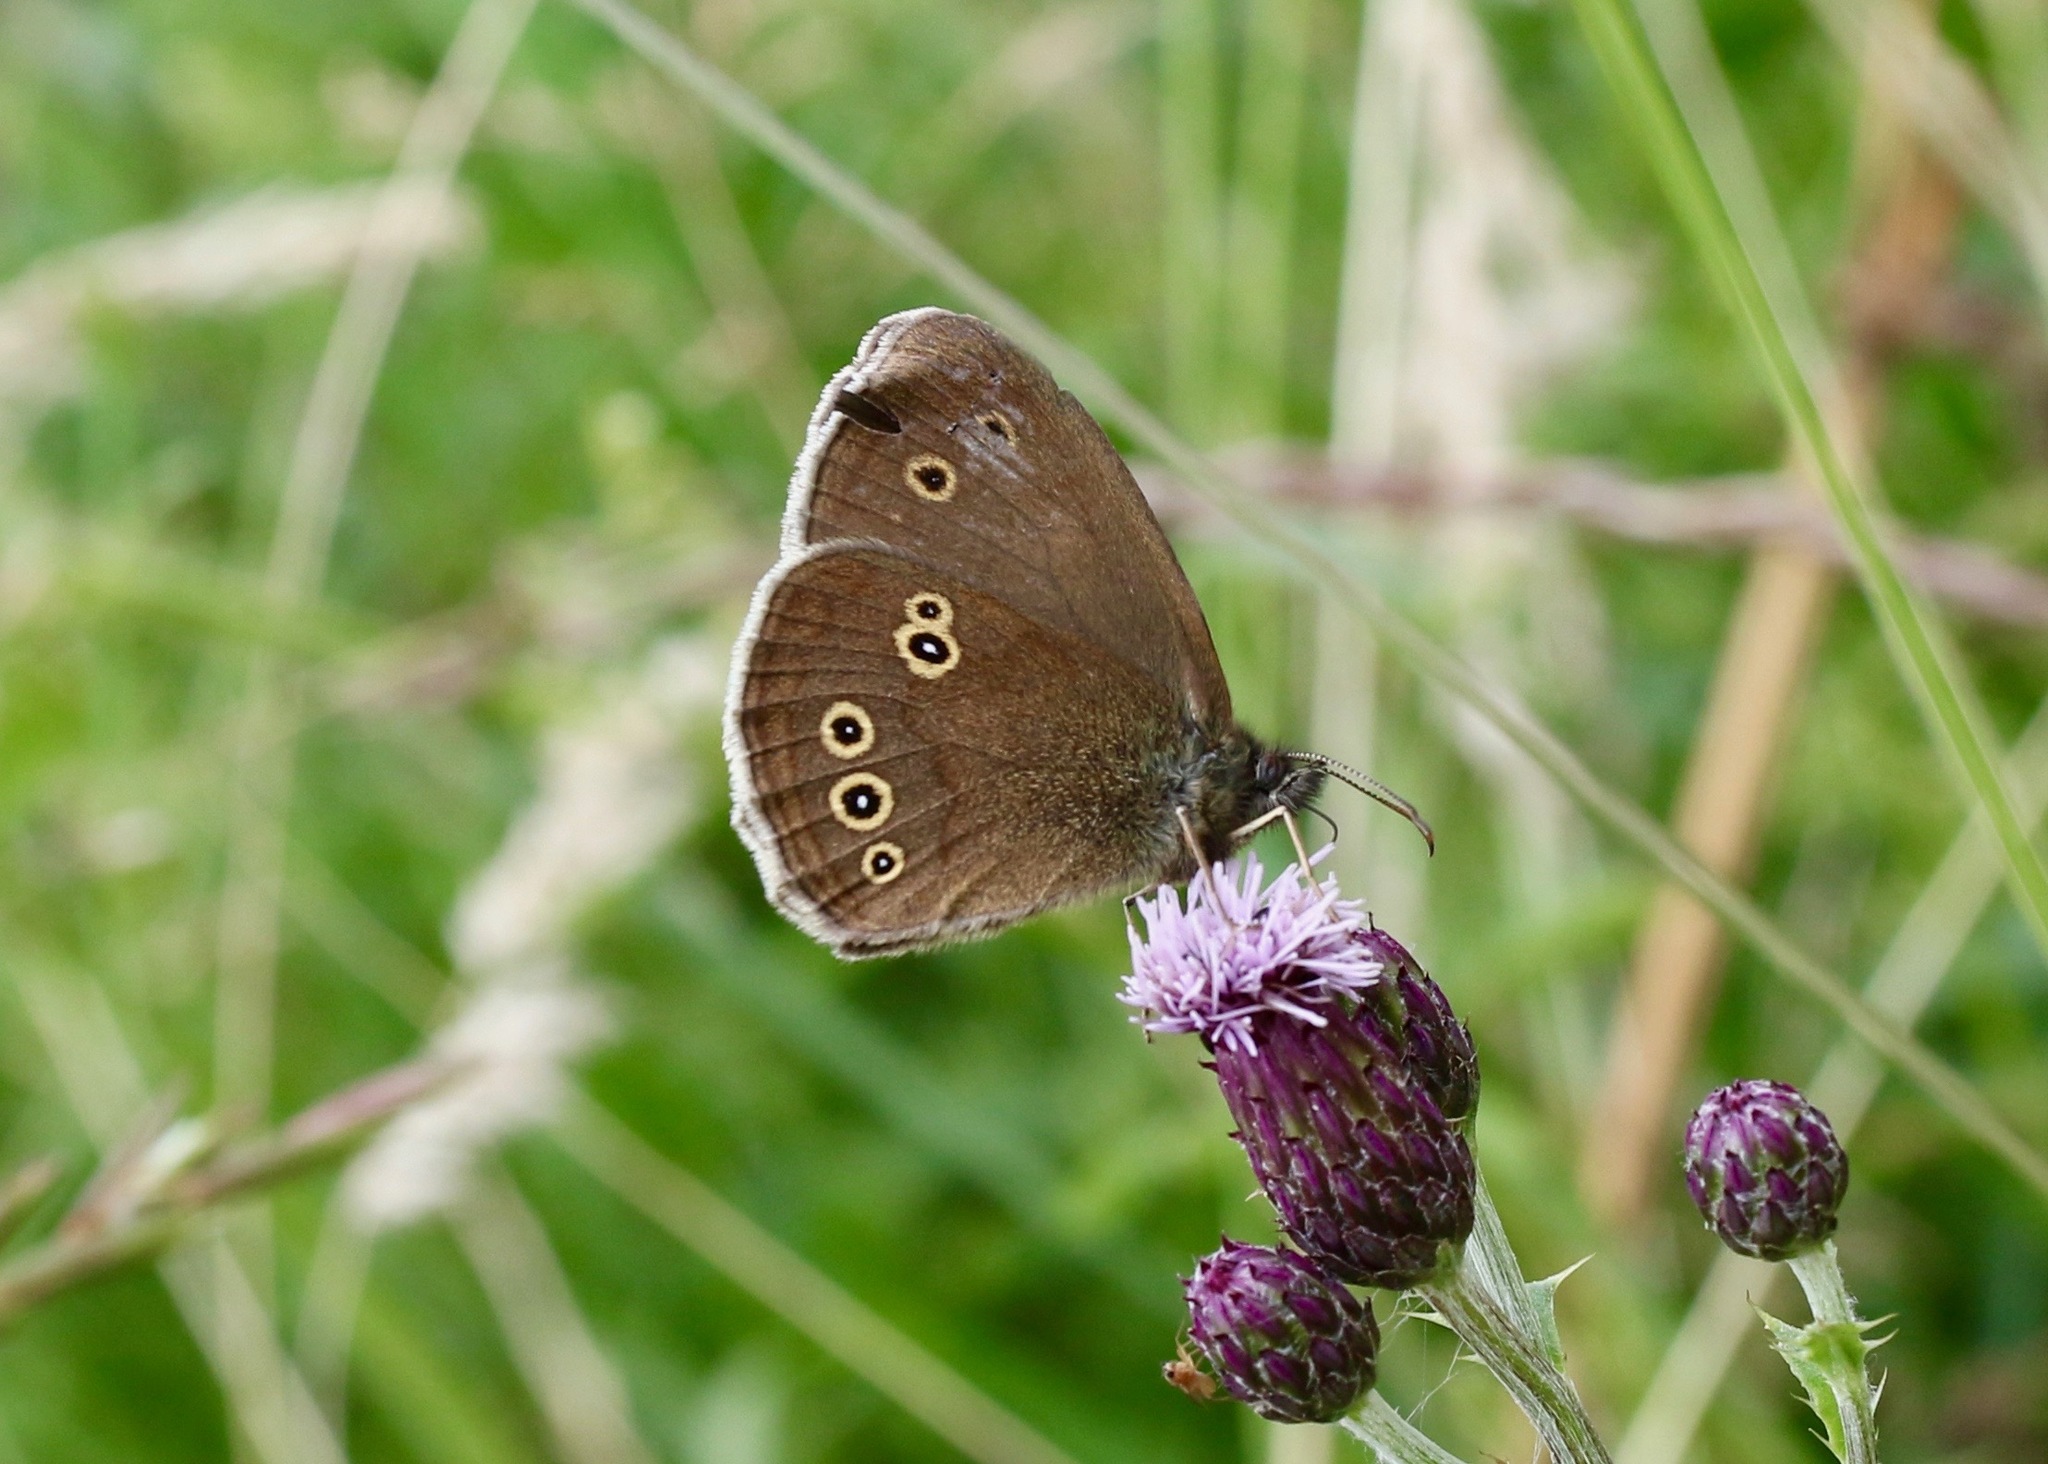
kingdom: Animalia
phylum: Arthropoda
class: Insecta
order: Lepidoptera
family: Nymphalidae
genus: Aphantopus
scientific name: Aphantopus hyperantus
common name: Ringlet
